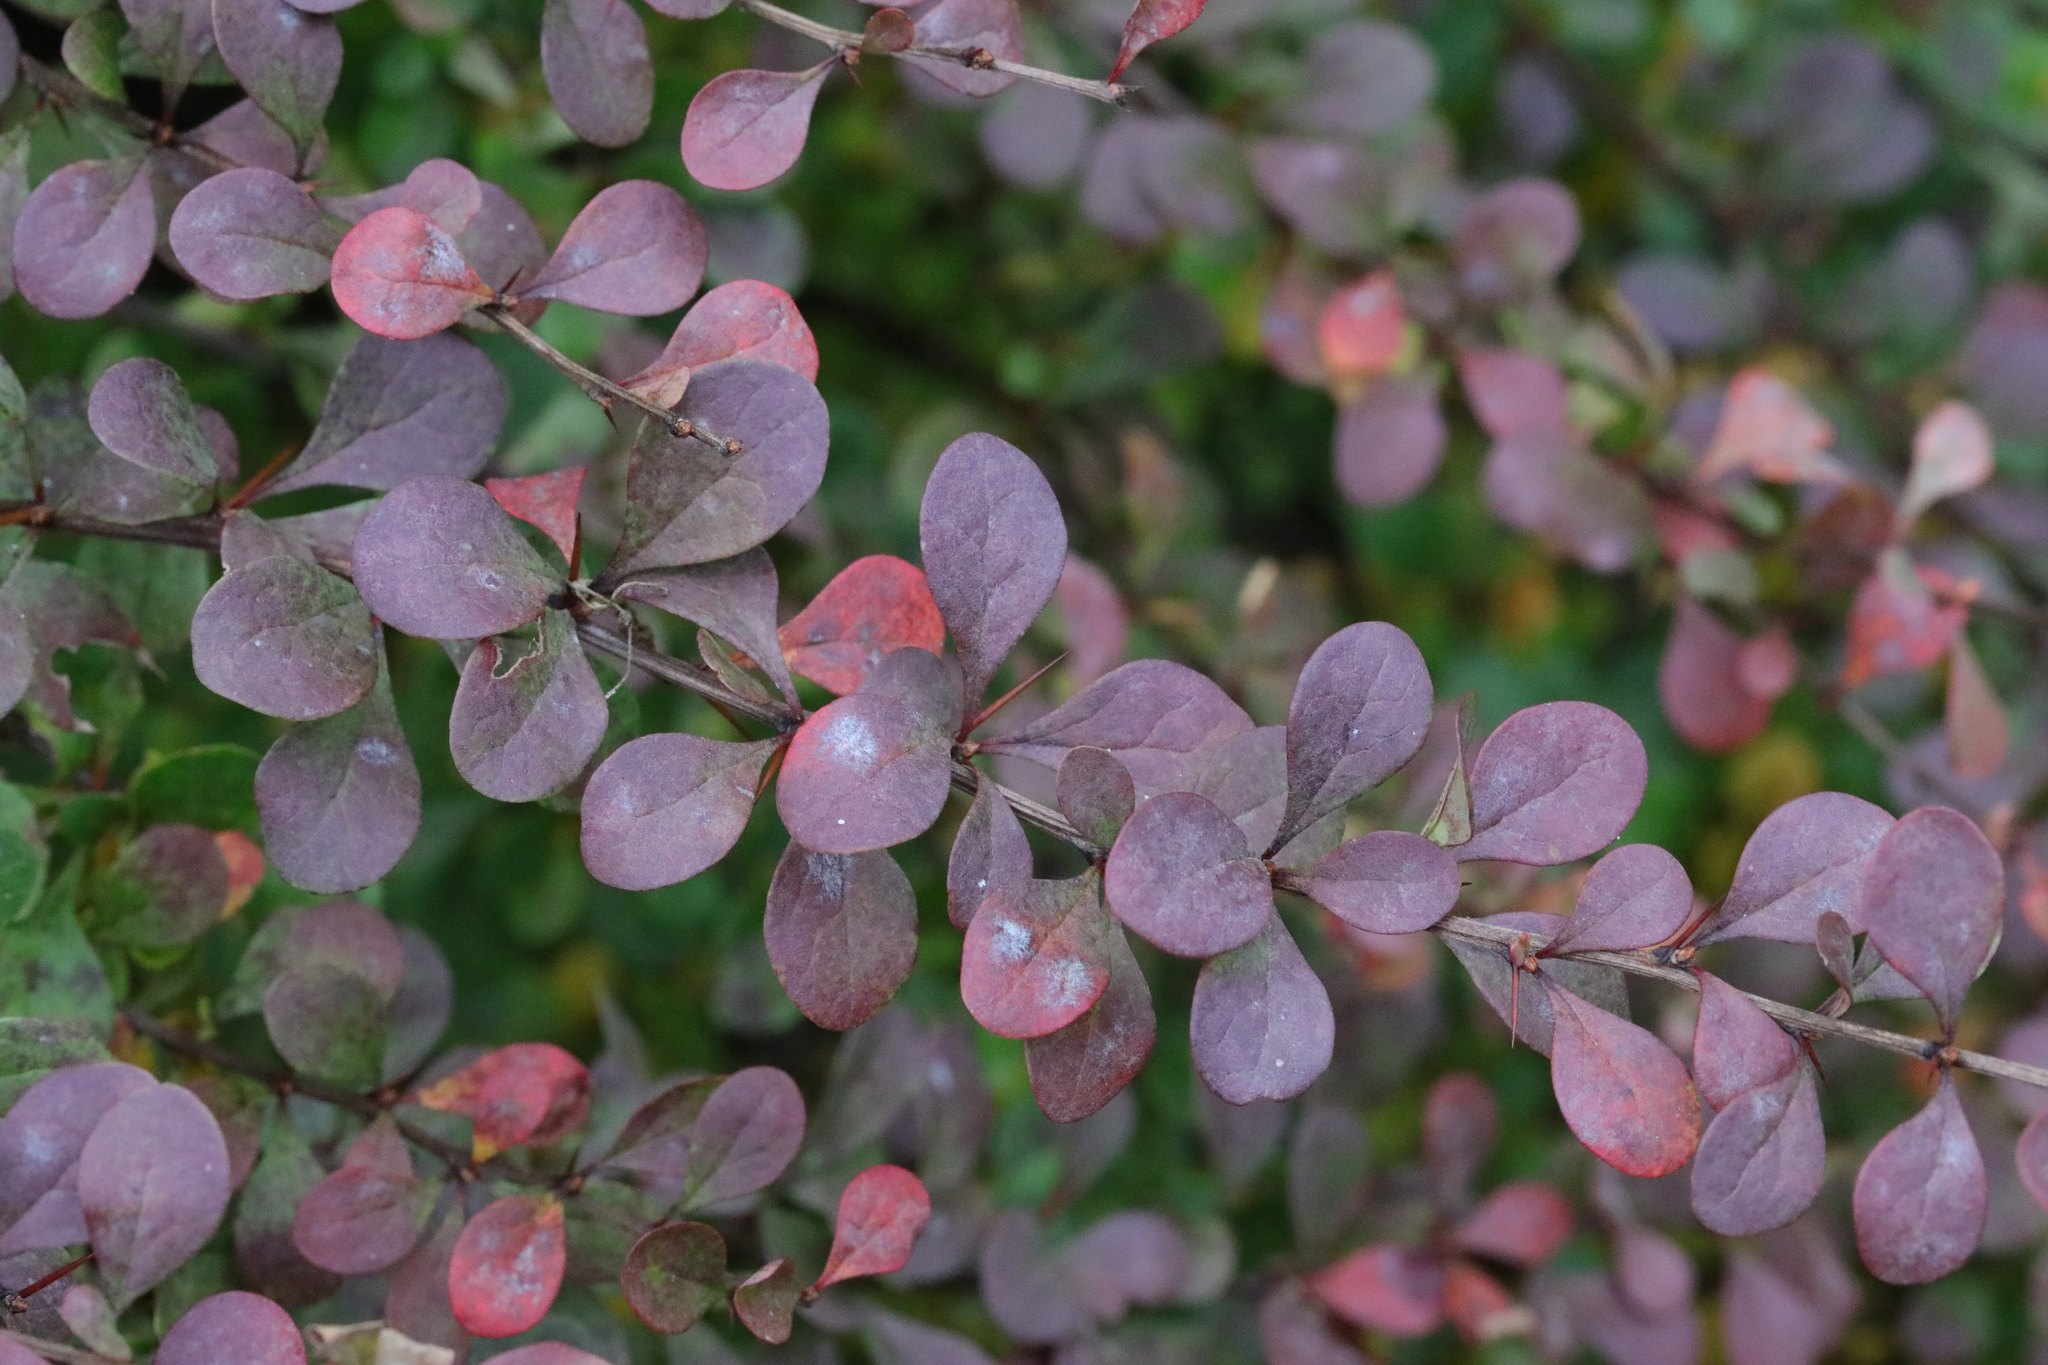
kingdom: Plantae
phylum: Tracheophyta
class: Magnoliopsida
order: Ranunculales
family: Berberidaceae
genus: Berberis
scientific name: Berberis thunbergii
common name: Japanese barberry
